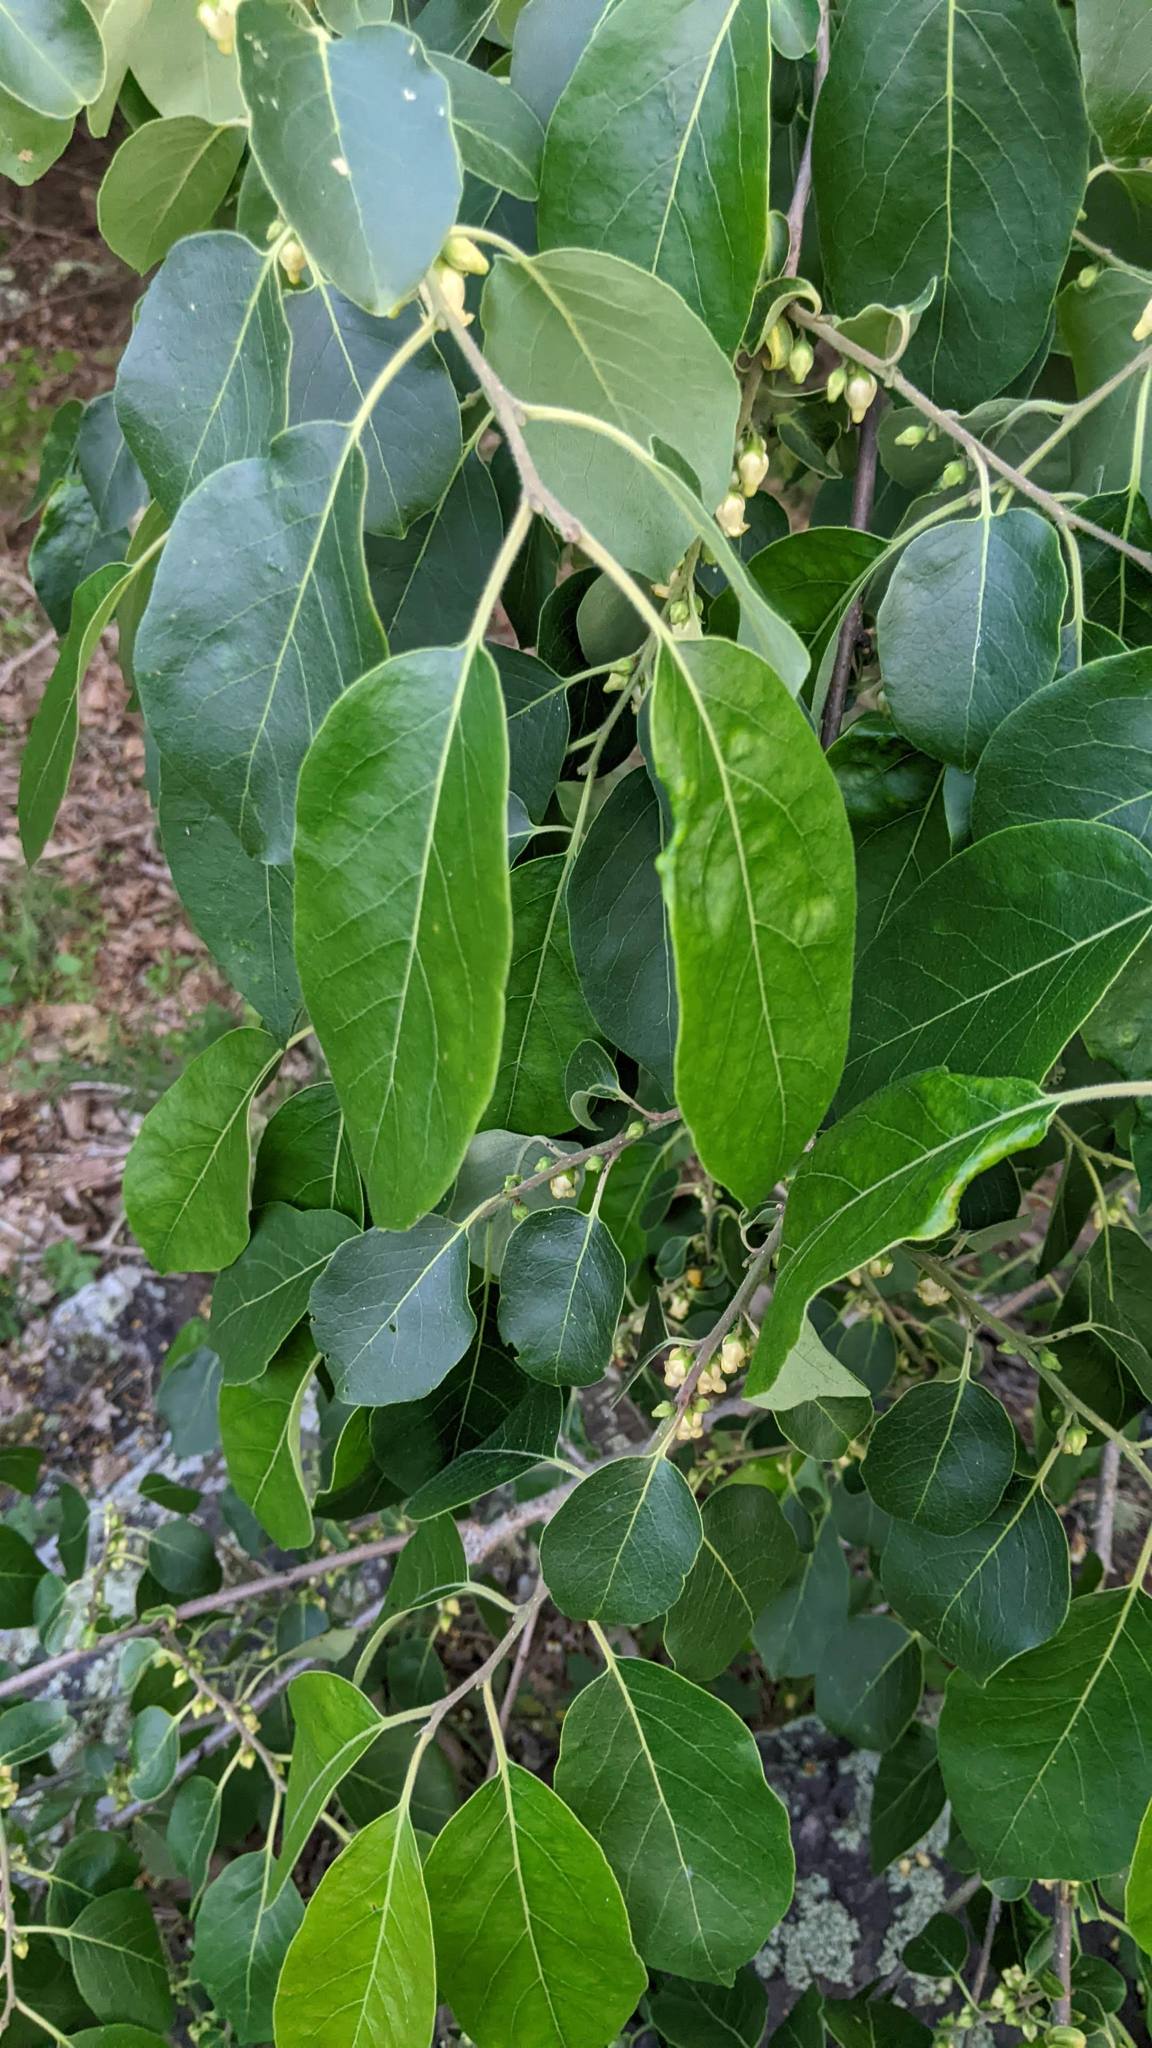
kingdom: Plantae
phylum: Tracheophyta
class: Magnoliopsida
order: Ericales
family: Ebenaceae
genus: Diospyros
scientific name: Diospyros virginiana
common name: Persimmon
